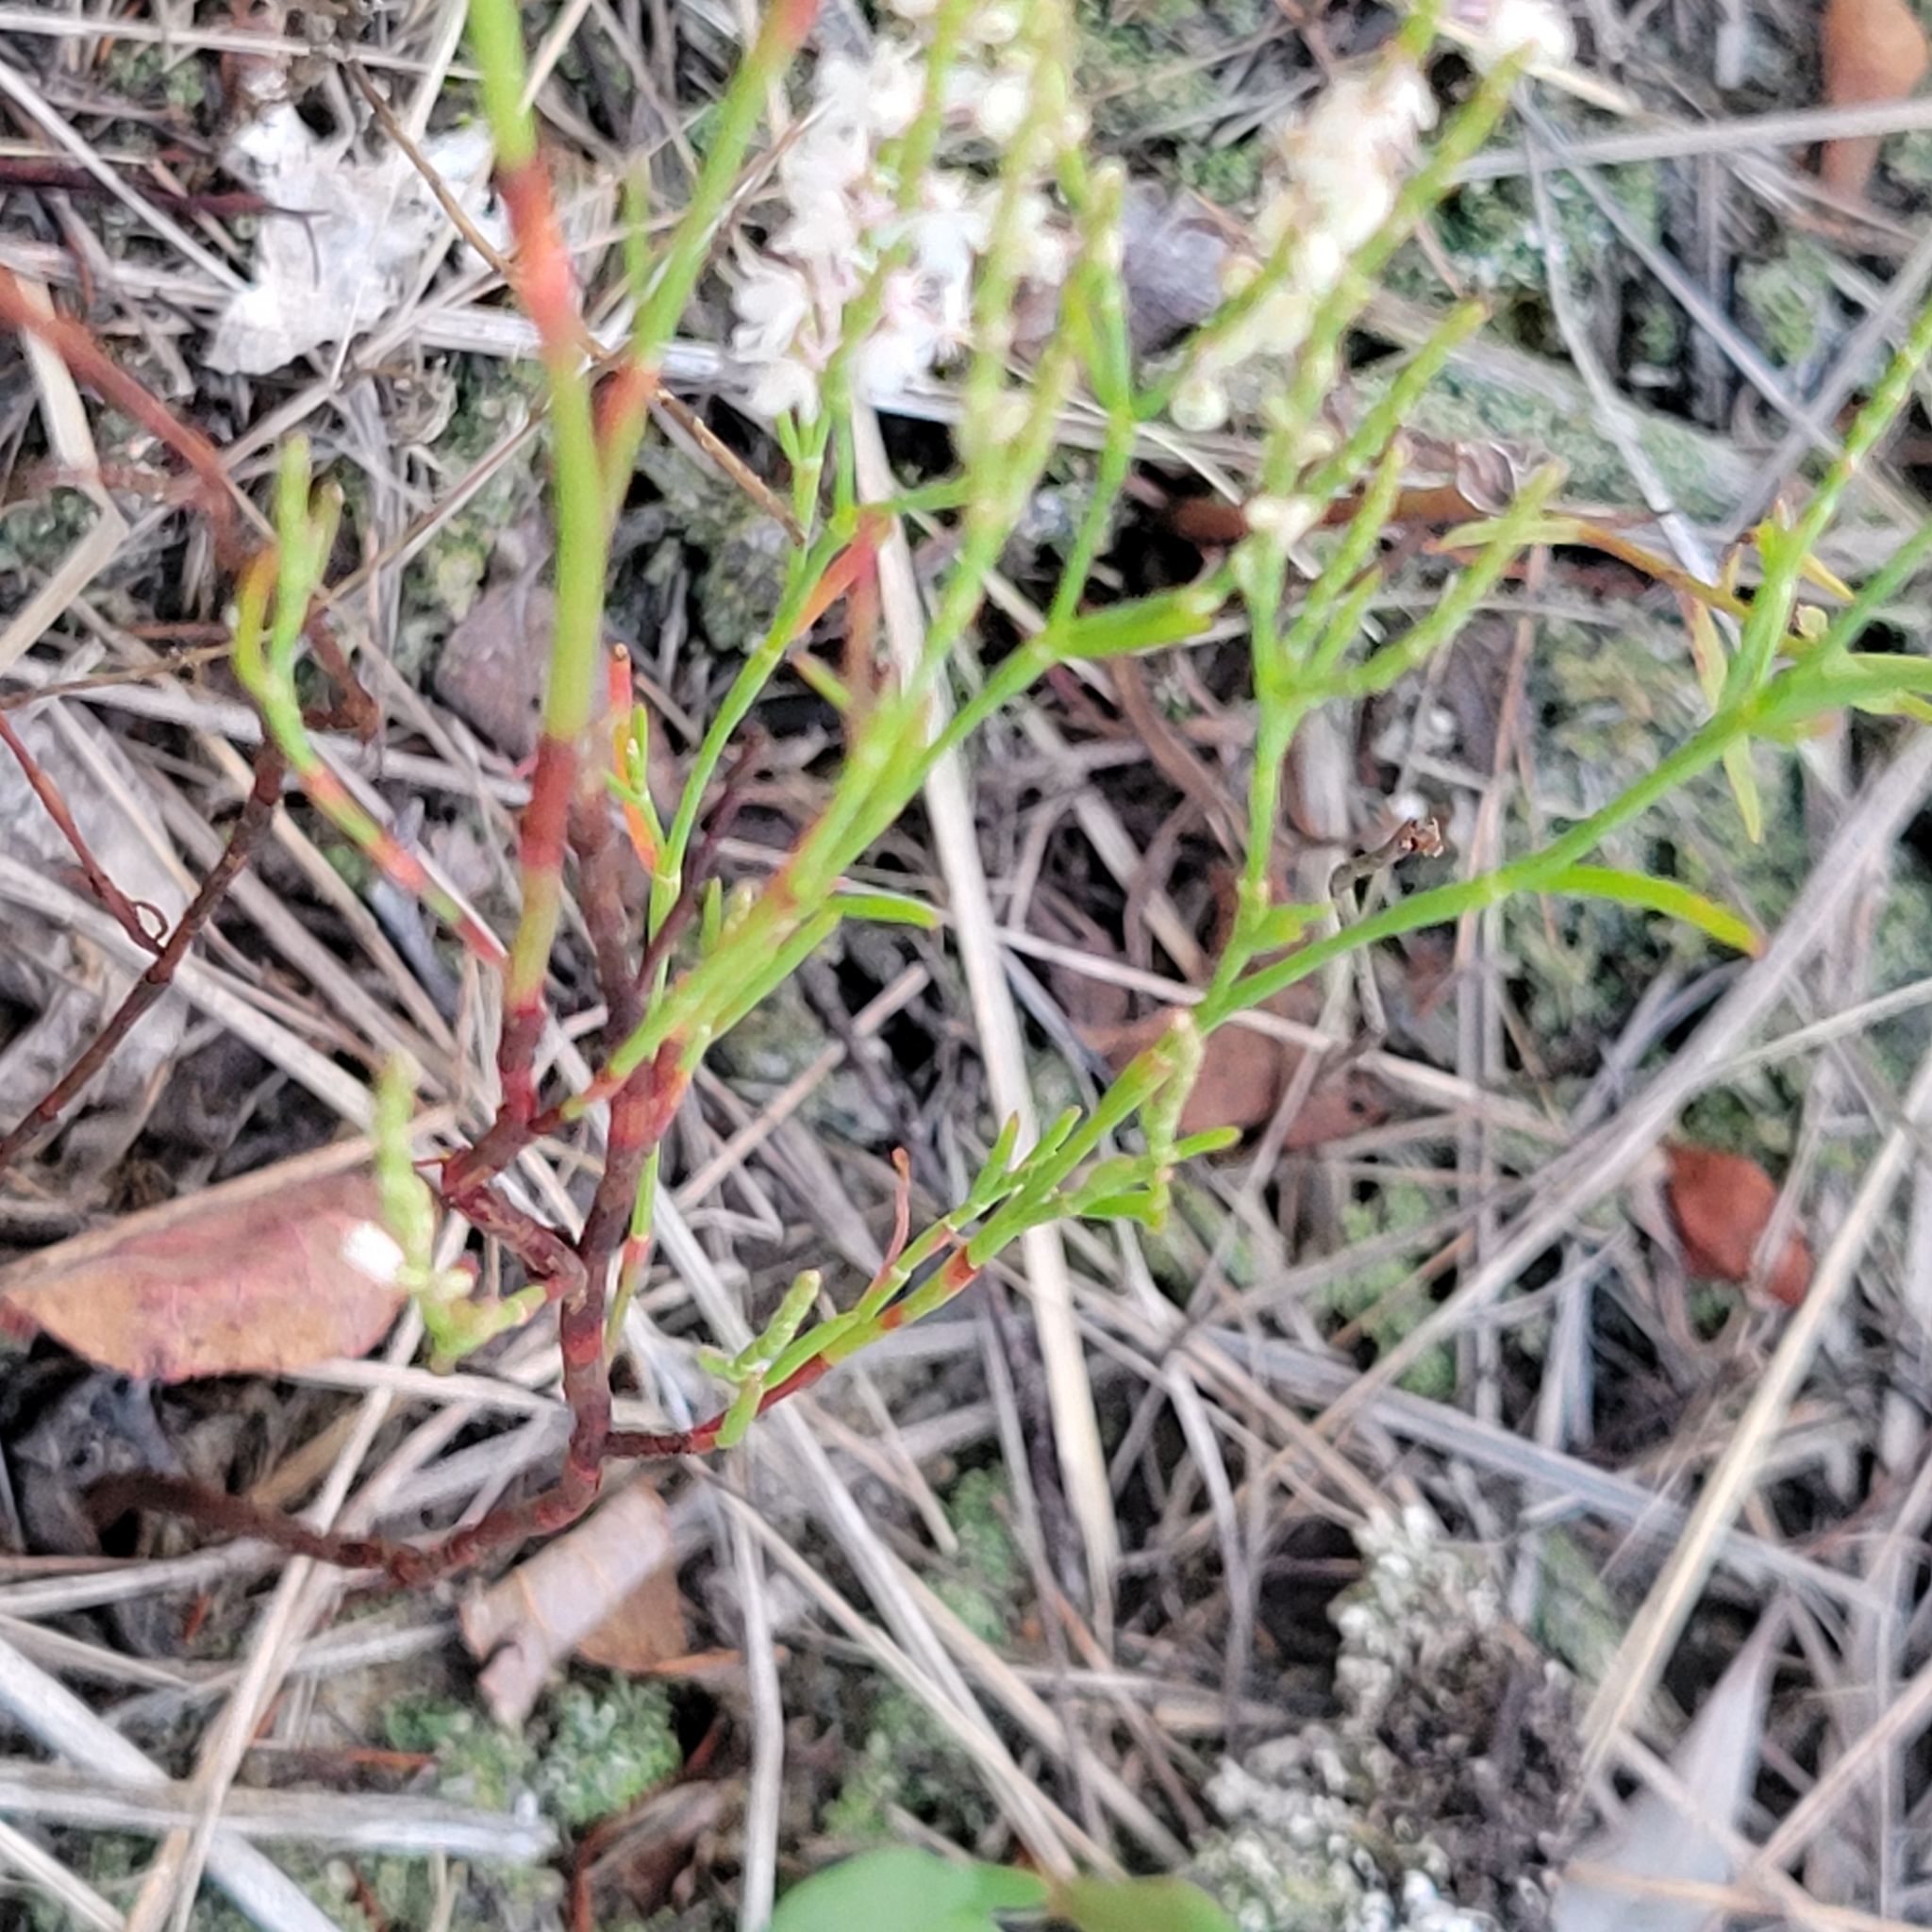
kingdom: Plantae
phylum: Tracheophyta
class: Magnoliopsida
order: Caryophyllales
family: Polygonaceae
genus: Polygonella
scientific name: Polygonella articulata
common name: Coastal jointweed
